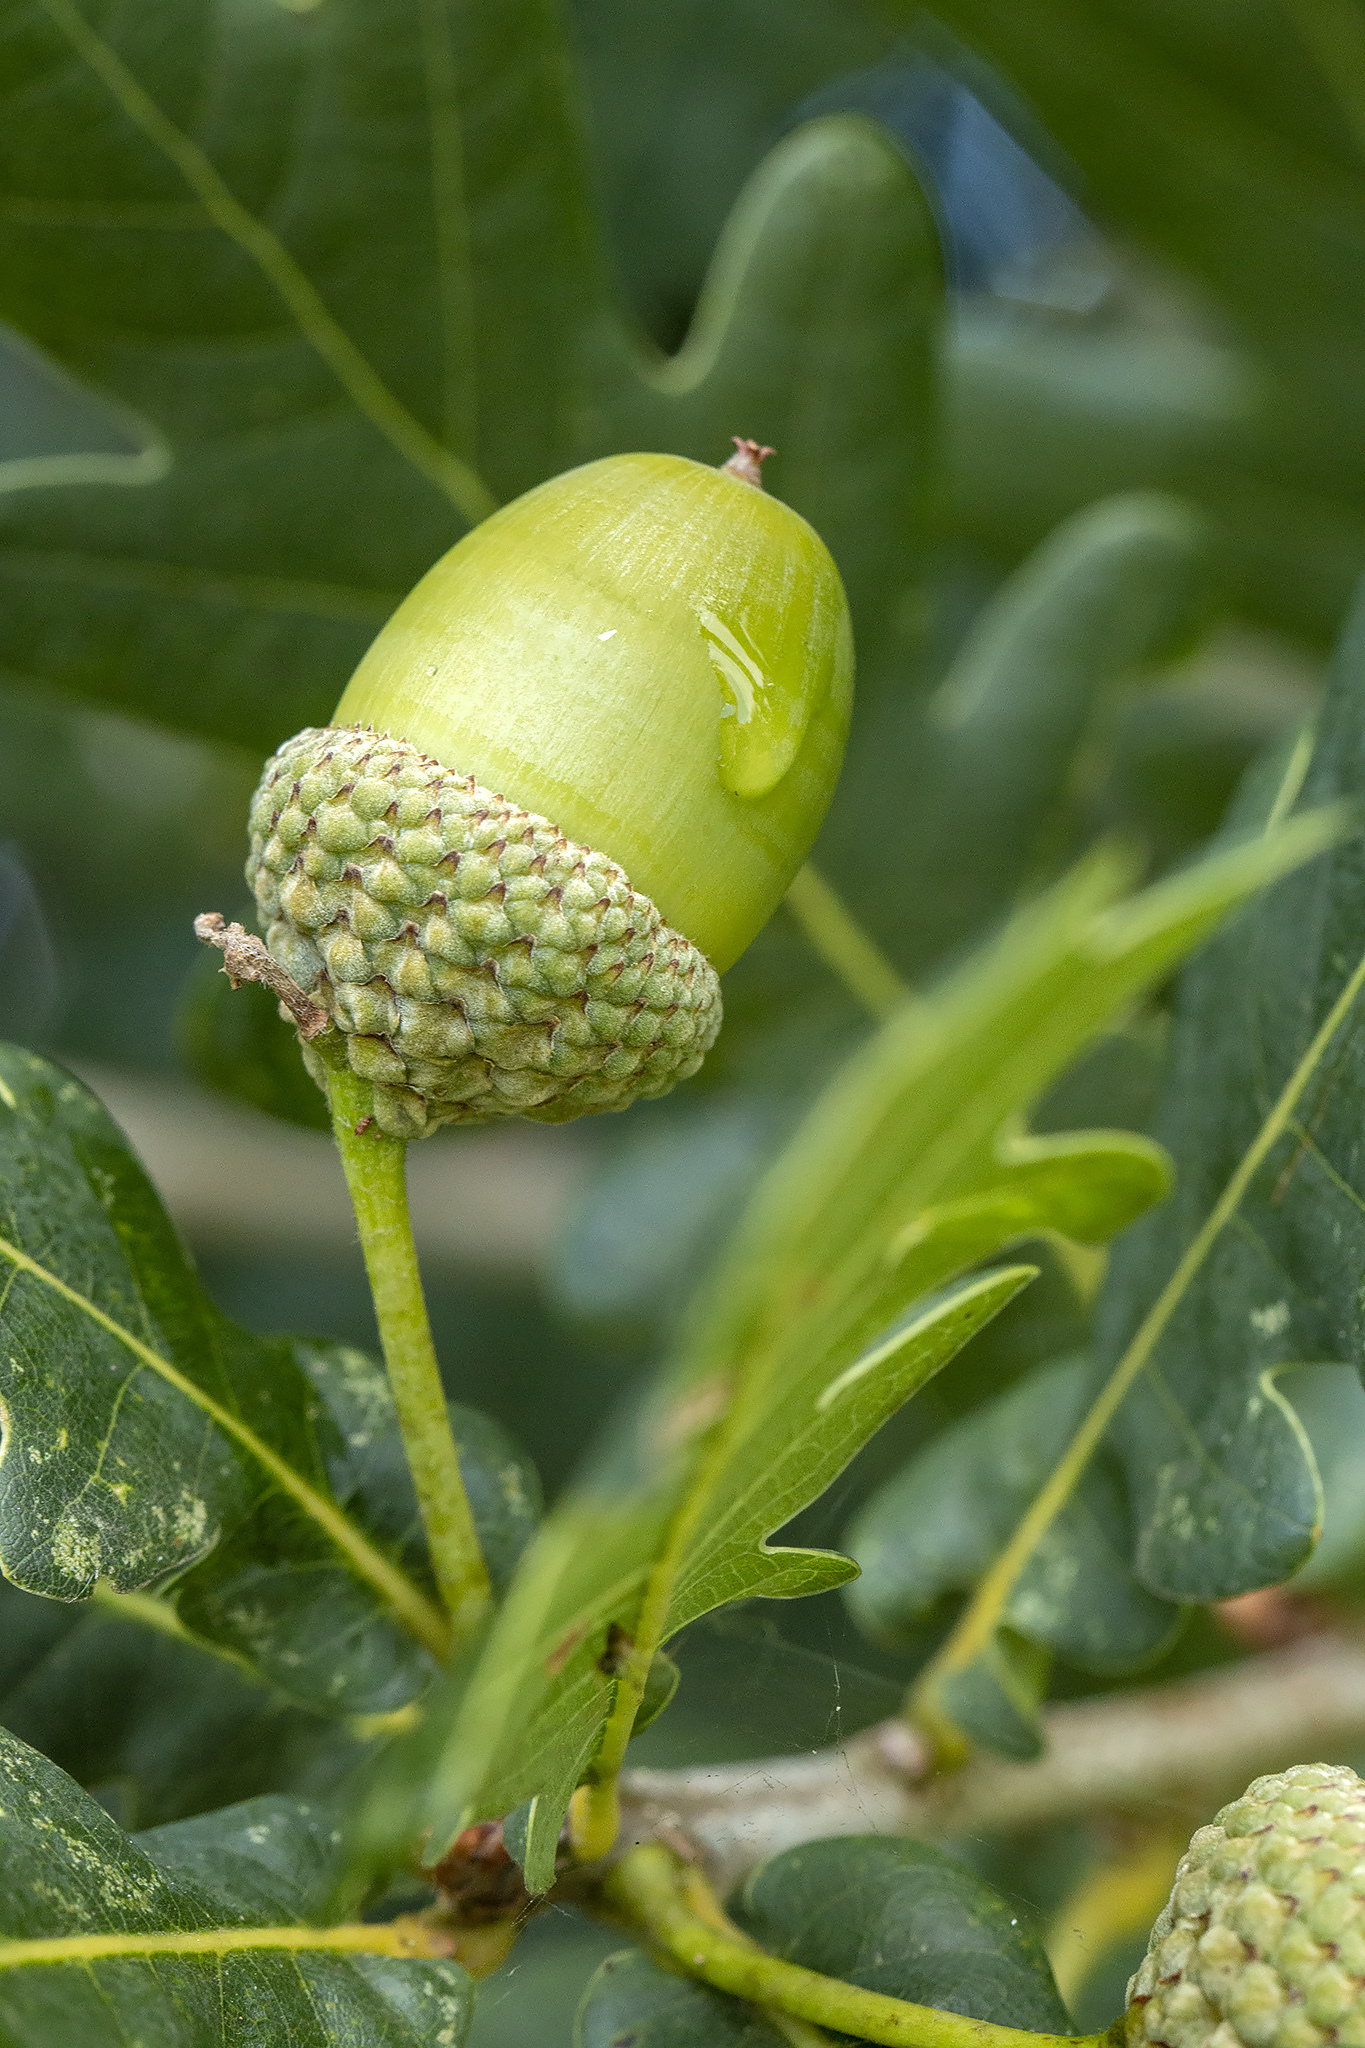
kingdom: Plantae
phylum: Tracheophyta
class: Magnoliopsida
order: Fagales
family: Fagaceae
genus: Quercus
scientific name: Quercus robur
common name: Pedunculate oak
